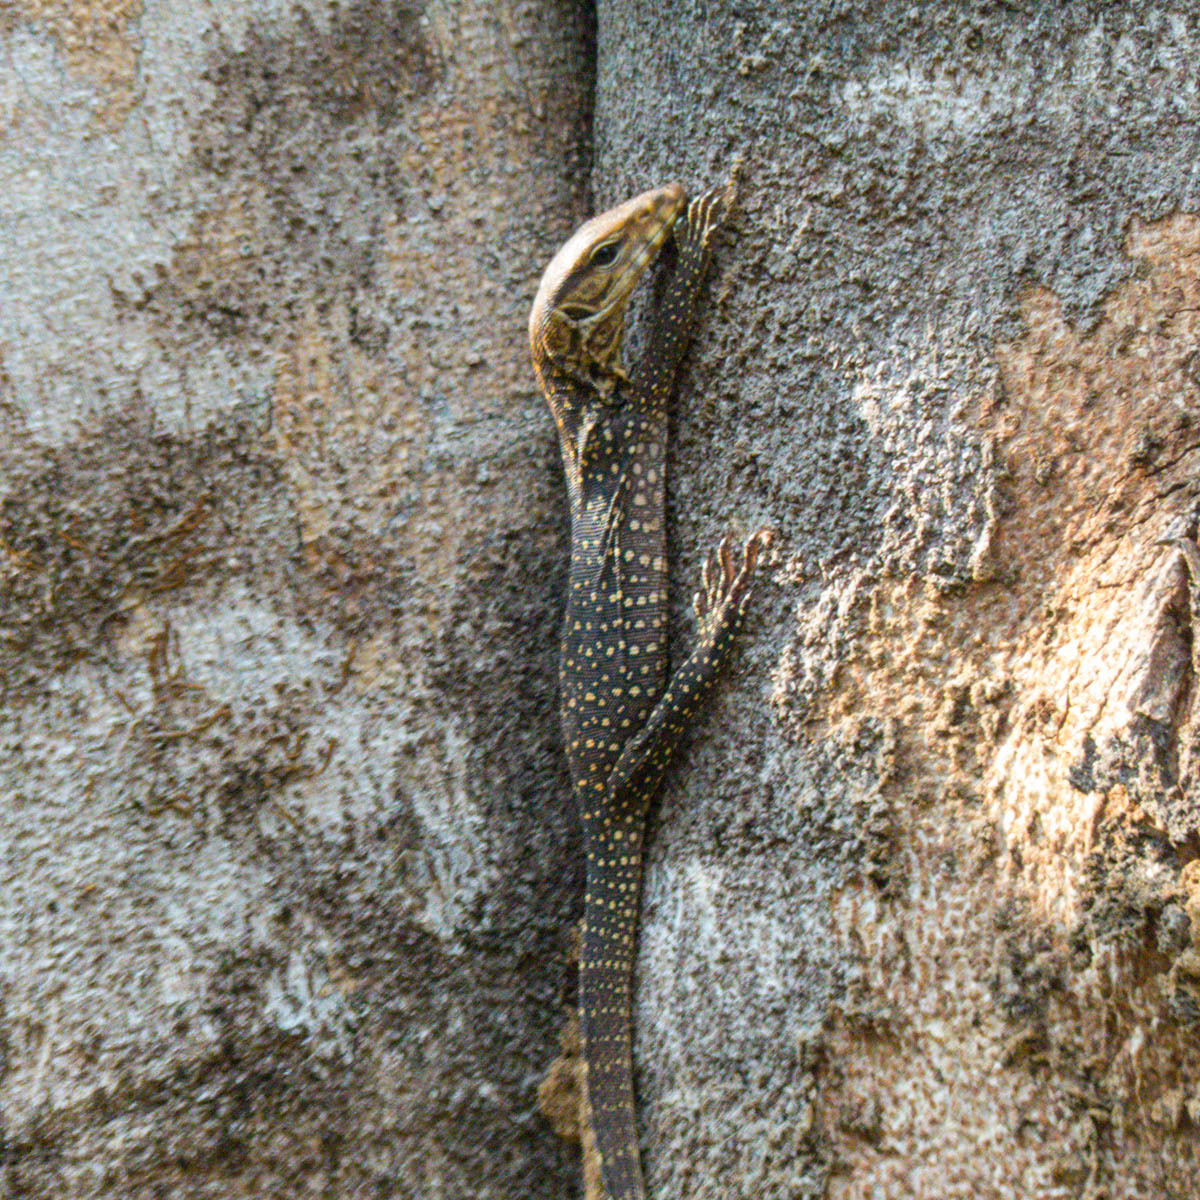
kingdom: Animalia
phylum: Chordata
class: Squamata
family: Varanidae
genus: Varanus
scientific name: Varanus nebulosus
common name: Clouded monitor
